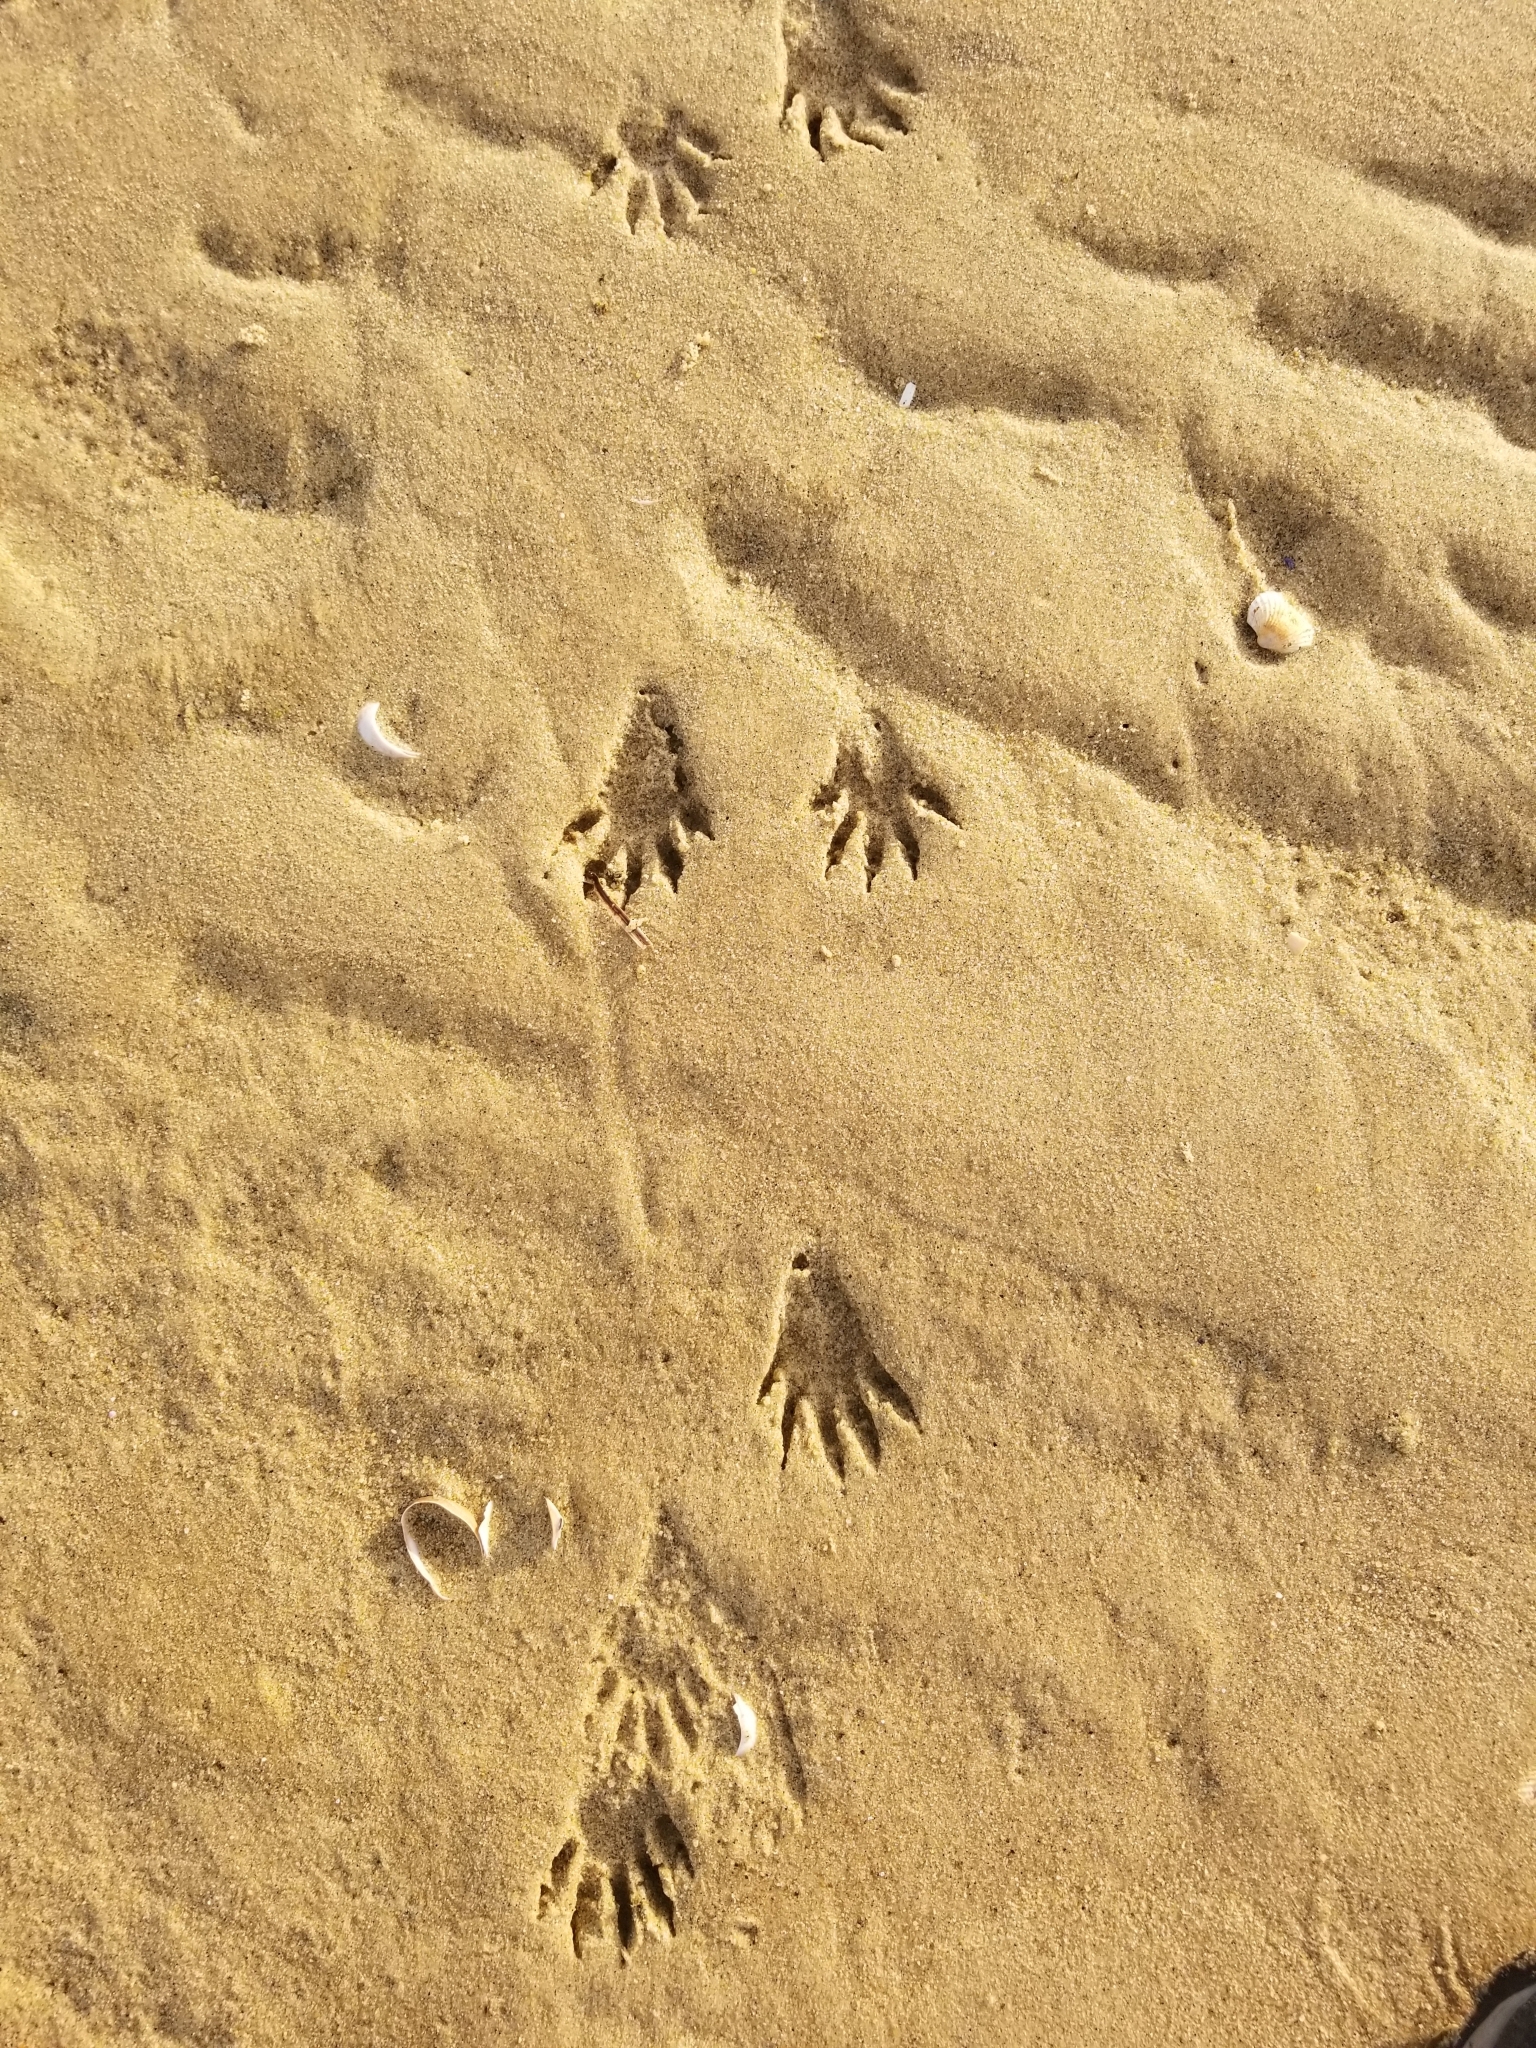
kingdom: Animalia
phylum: Chordata
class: Mammalia
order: Carnivora
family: Procyonidae
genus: Procyon
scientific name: Procyon lotor
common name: Raccoon
